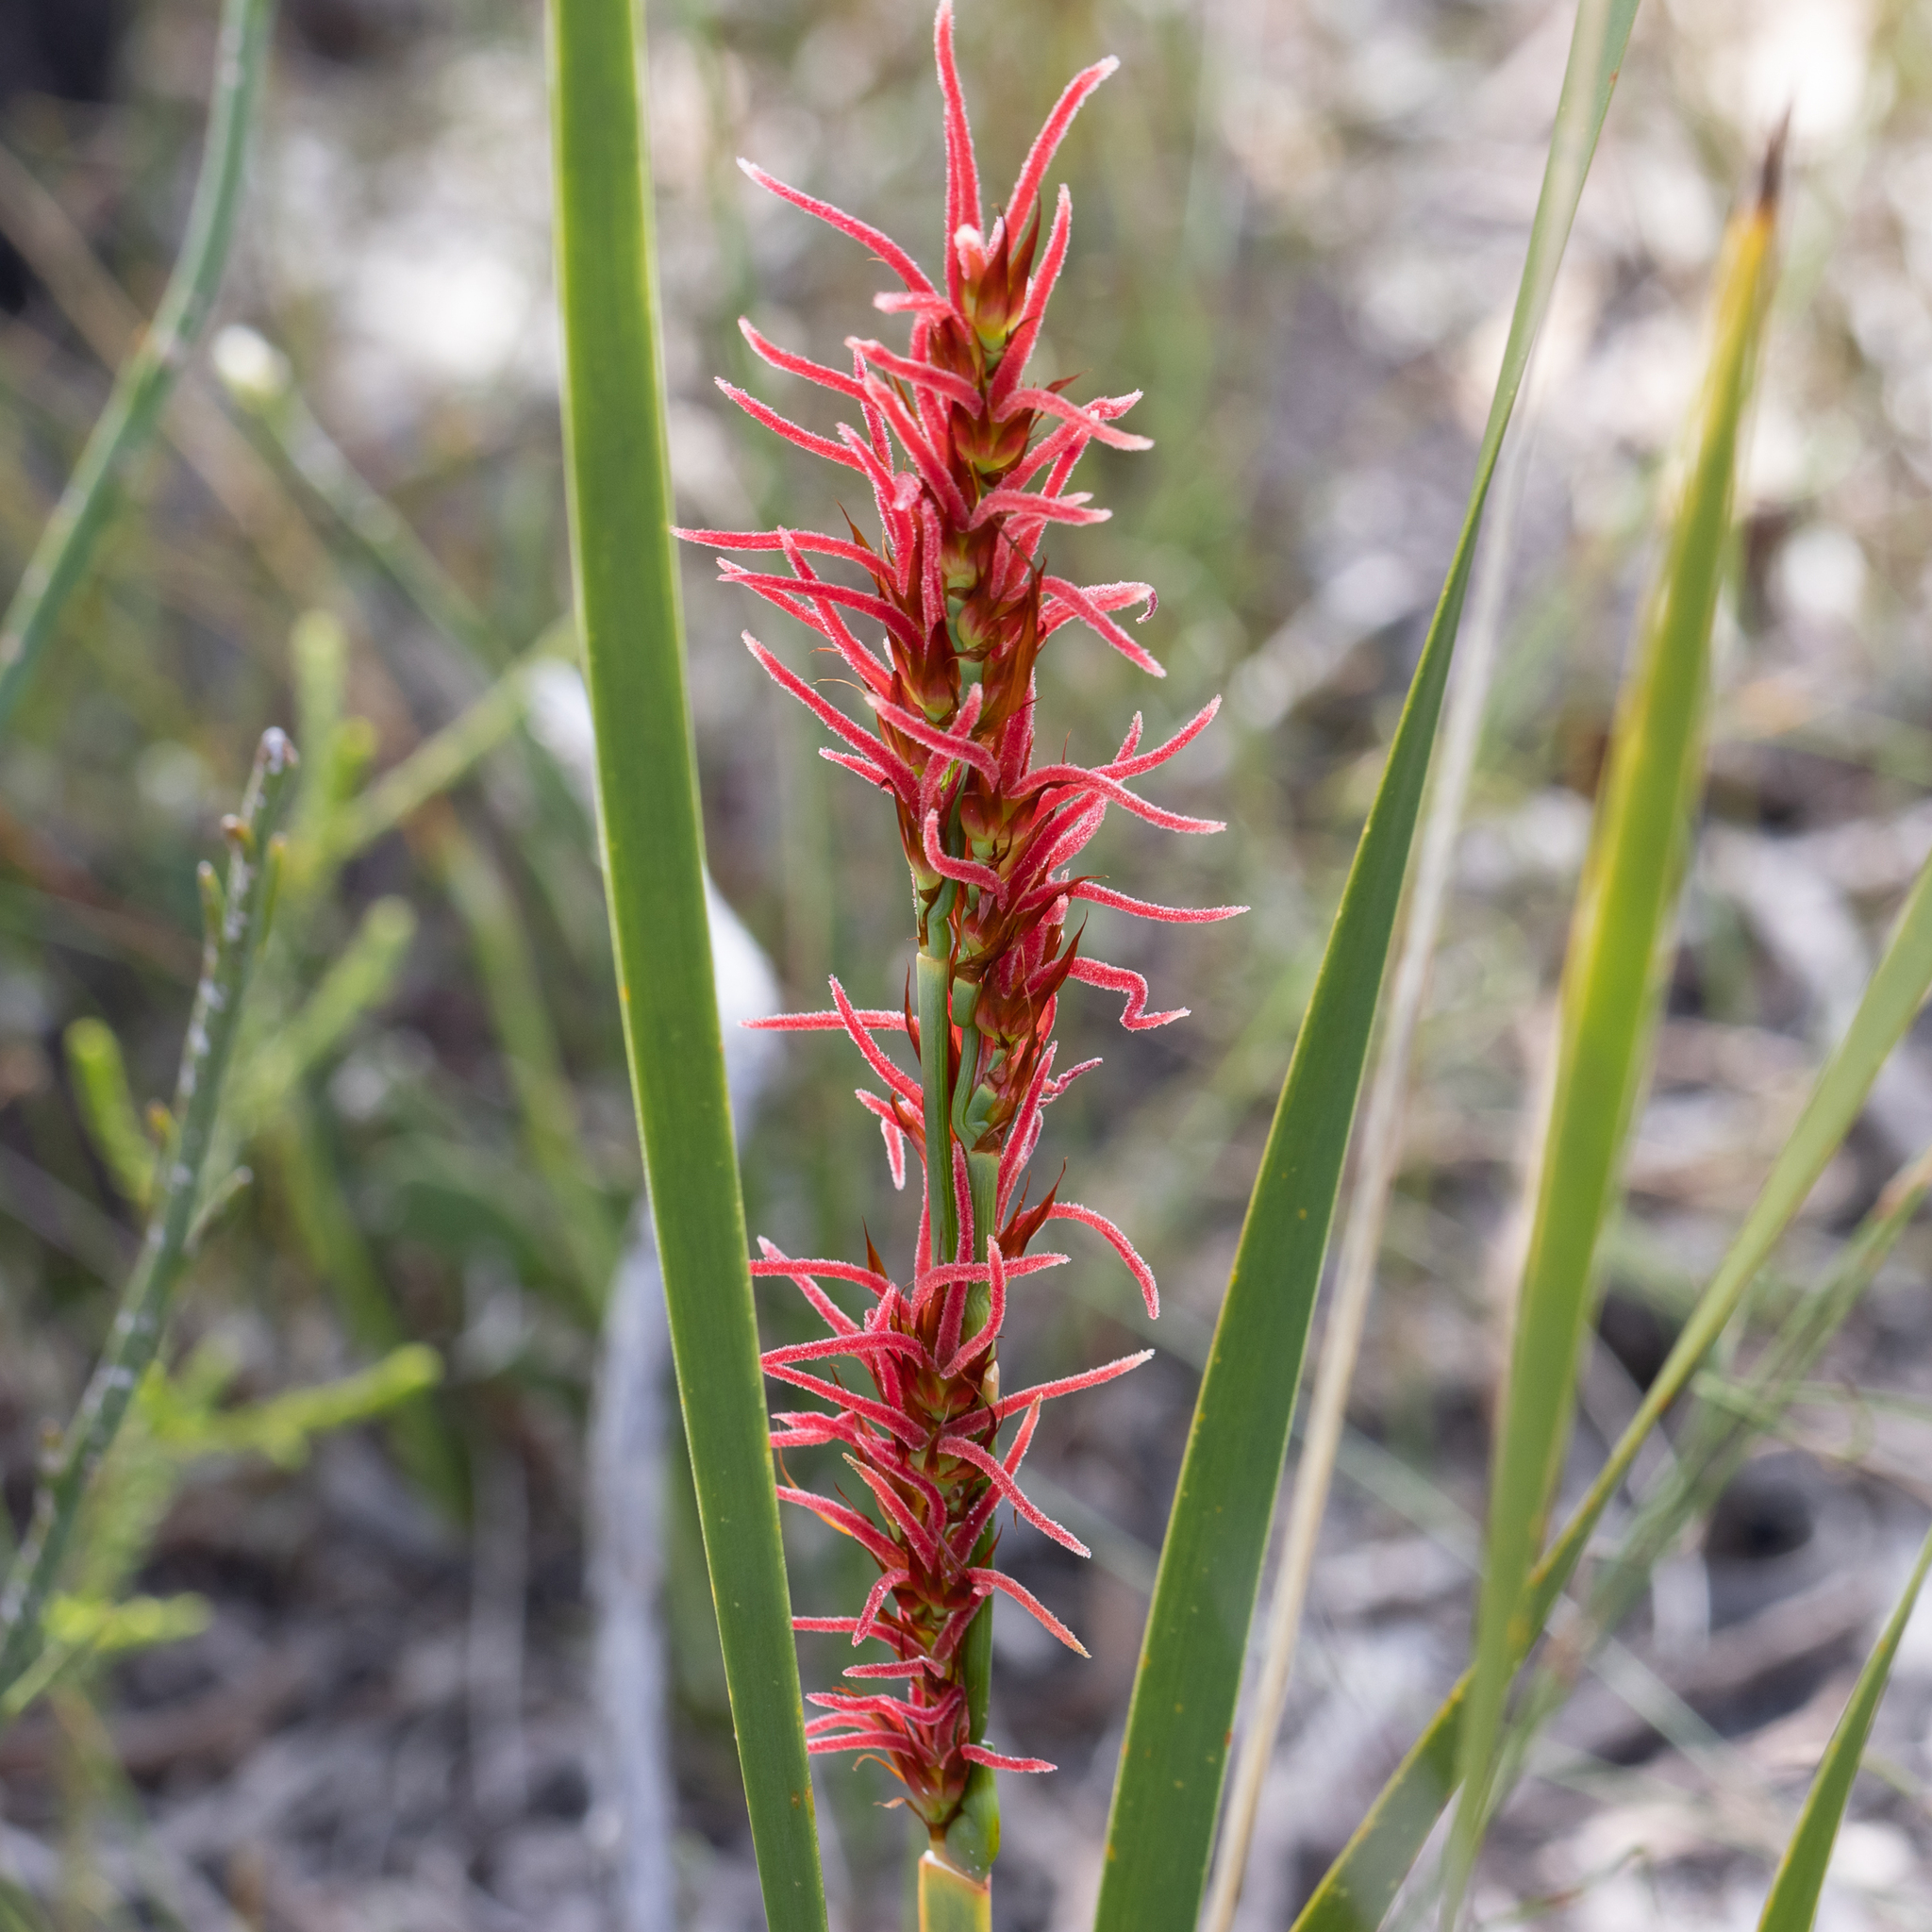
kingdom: Plantae
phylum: Tracheophyta
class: Liliopsida
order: Poales
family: Restionaceae
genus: Anarthria
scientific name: Anarthria scabra
